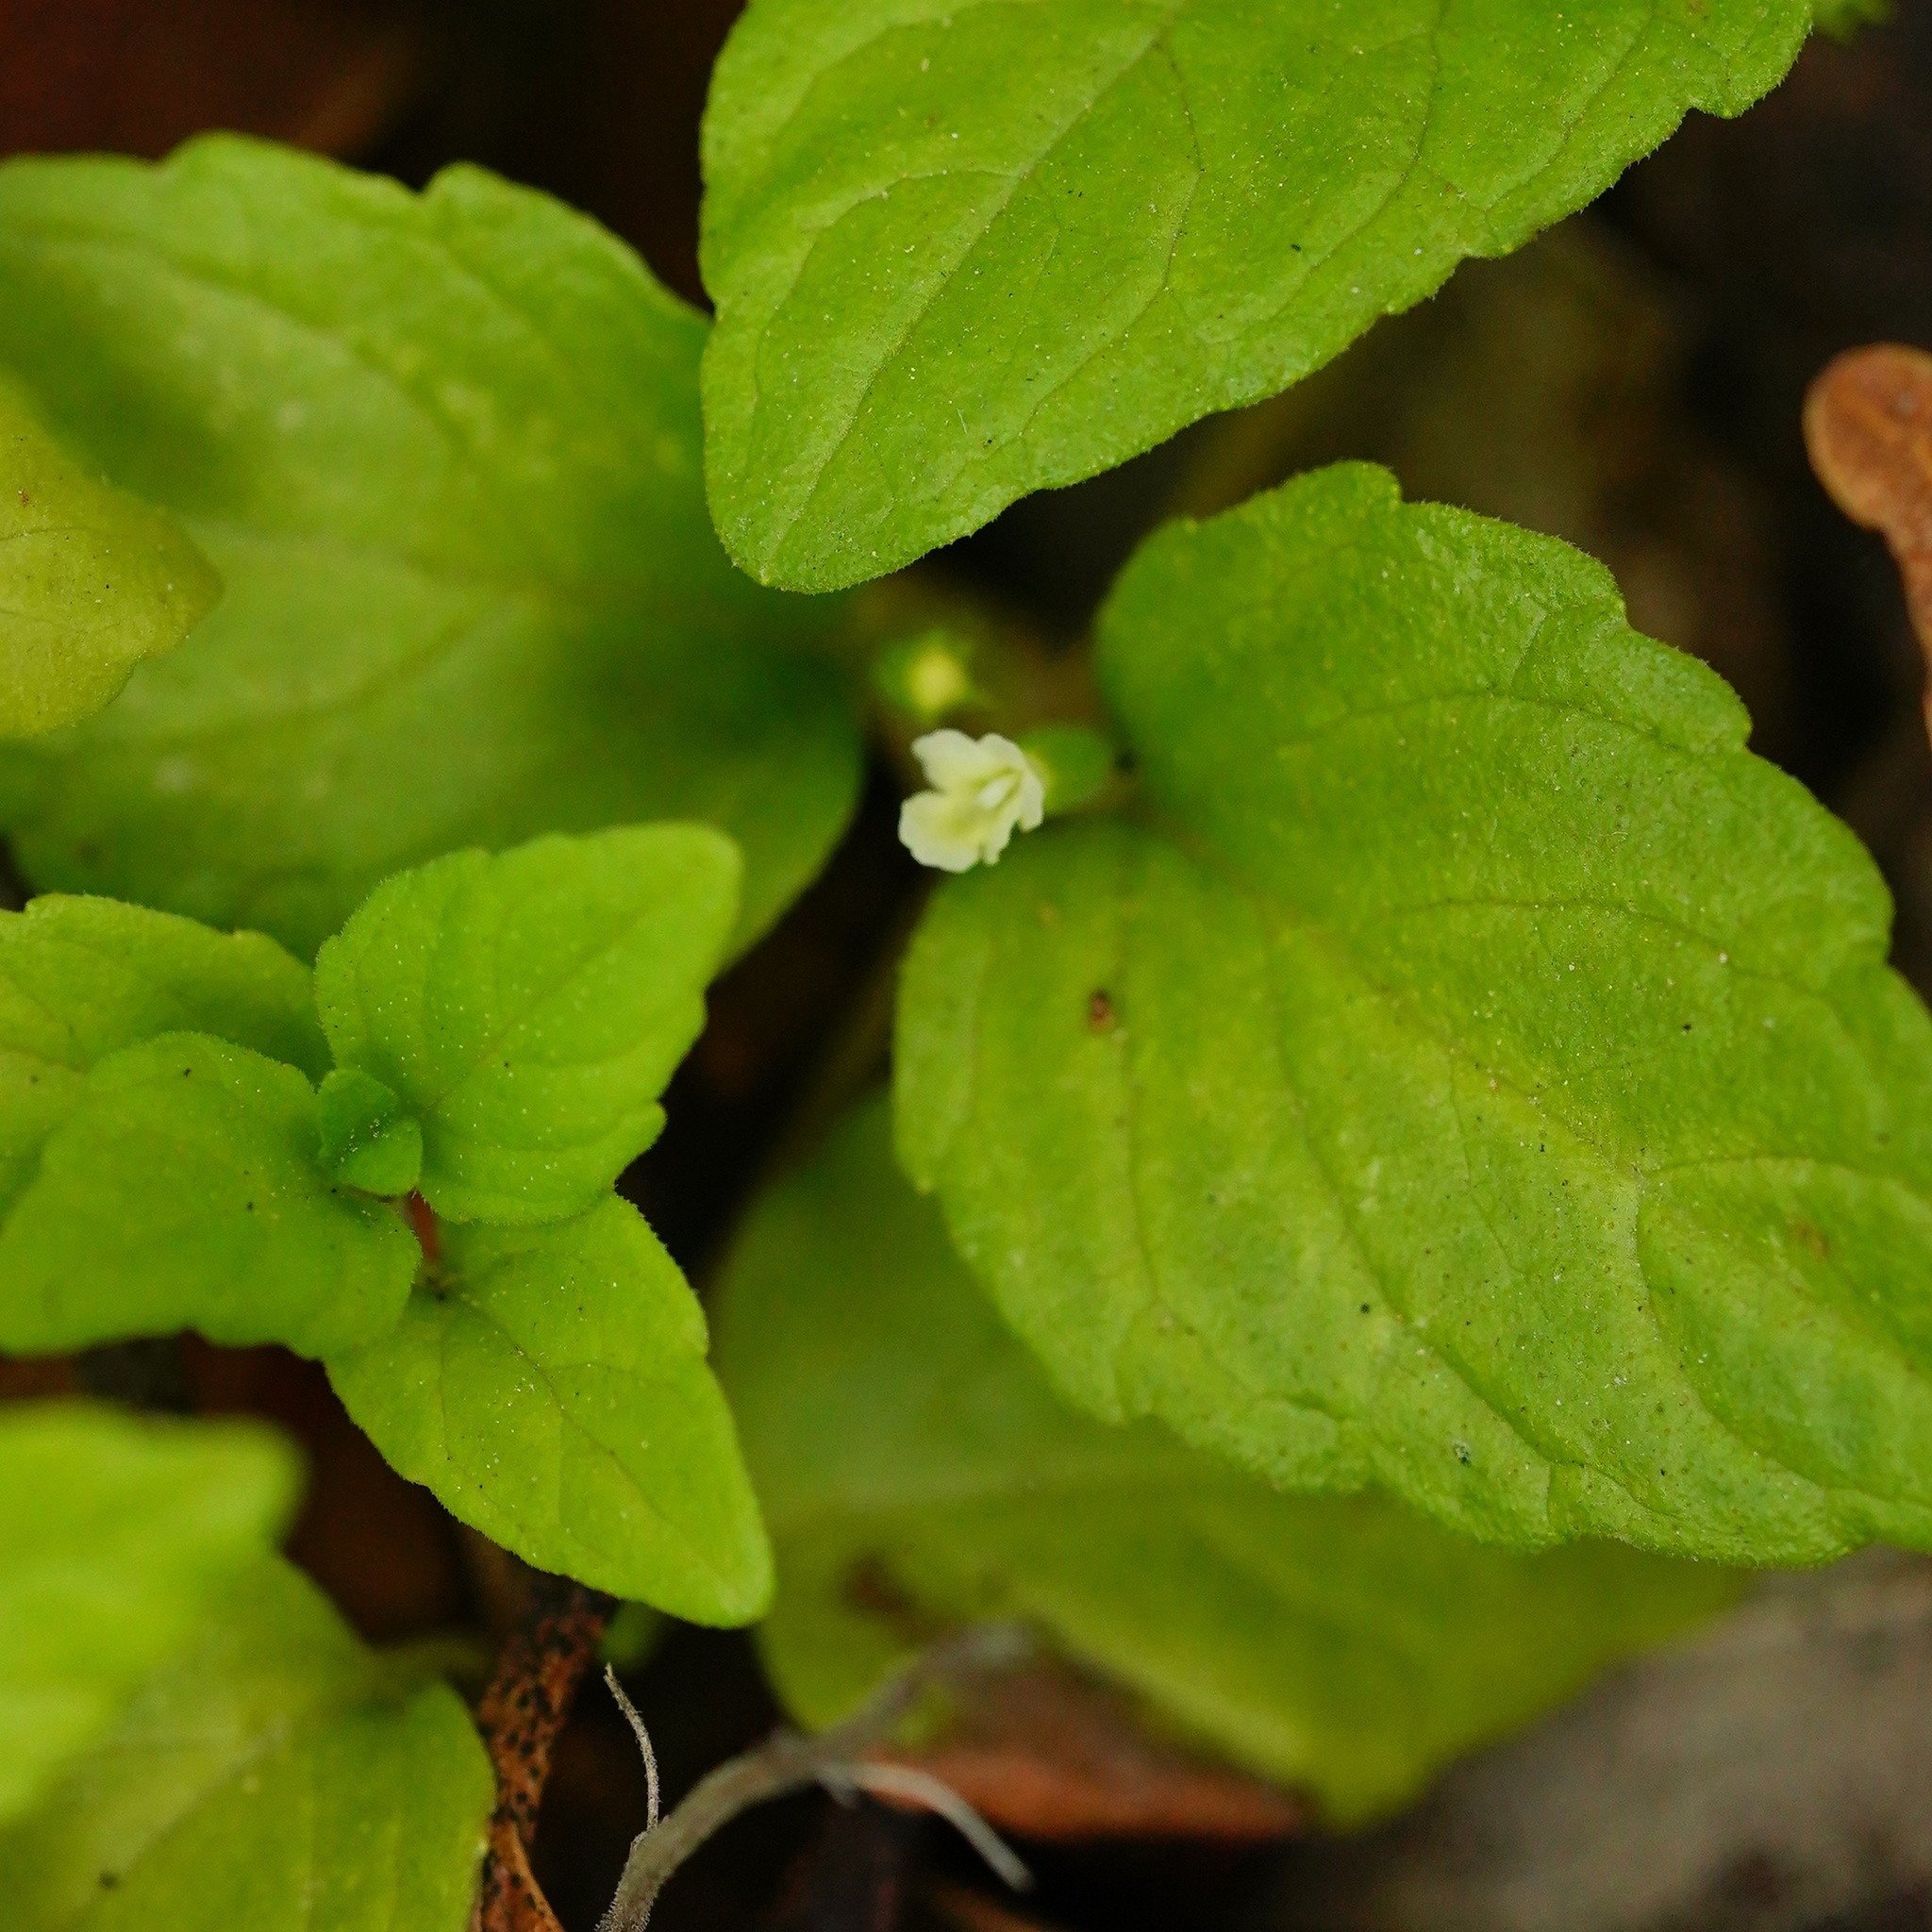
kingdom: Plantae
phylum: Tracheophyta
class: Magnoliopsida
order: Lamiales
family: Lamiaceae
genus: Micromeria
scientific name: Micromeria douglasii
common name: Yerba buena
